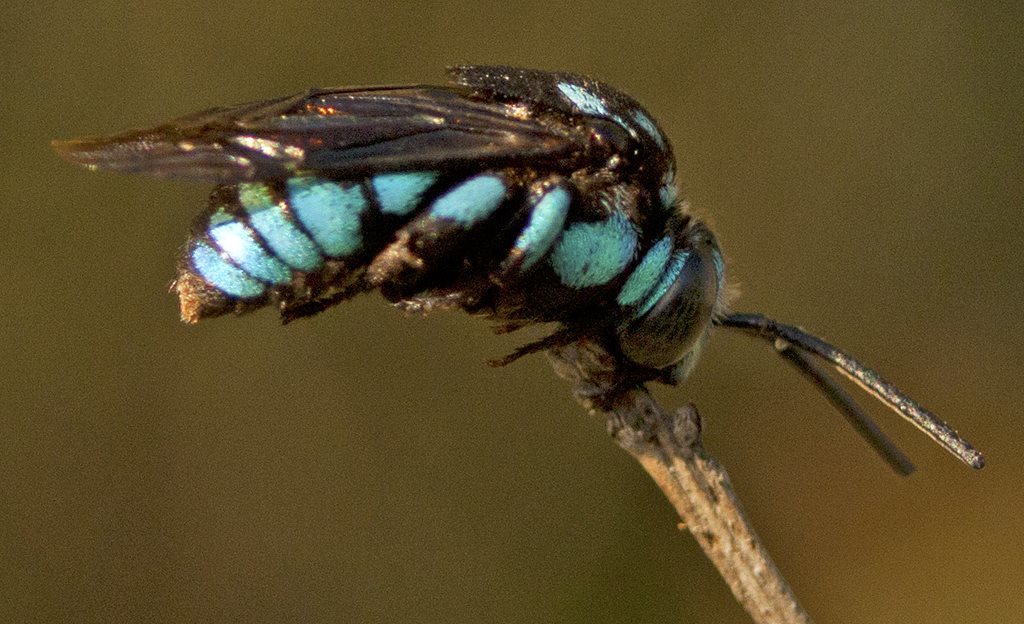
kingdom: Animalia
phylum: Arthropoda
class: Insecta
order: Hymenoptera
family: Apidae
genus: Thyreus
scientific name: Thyreus nitidulus
